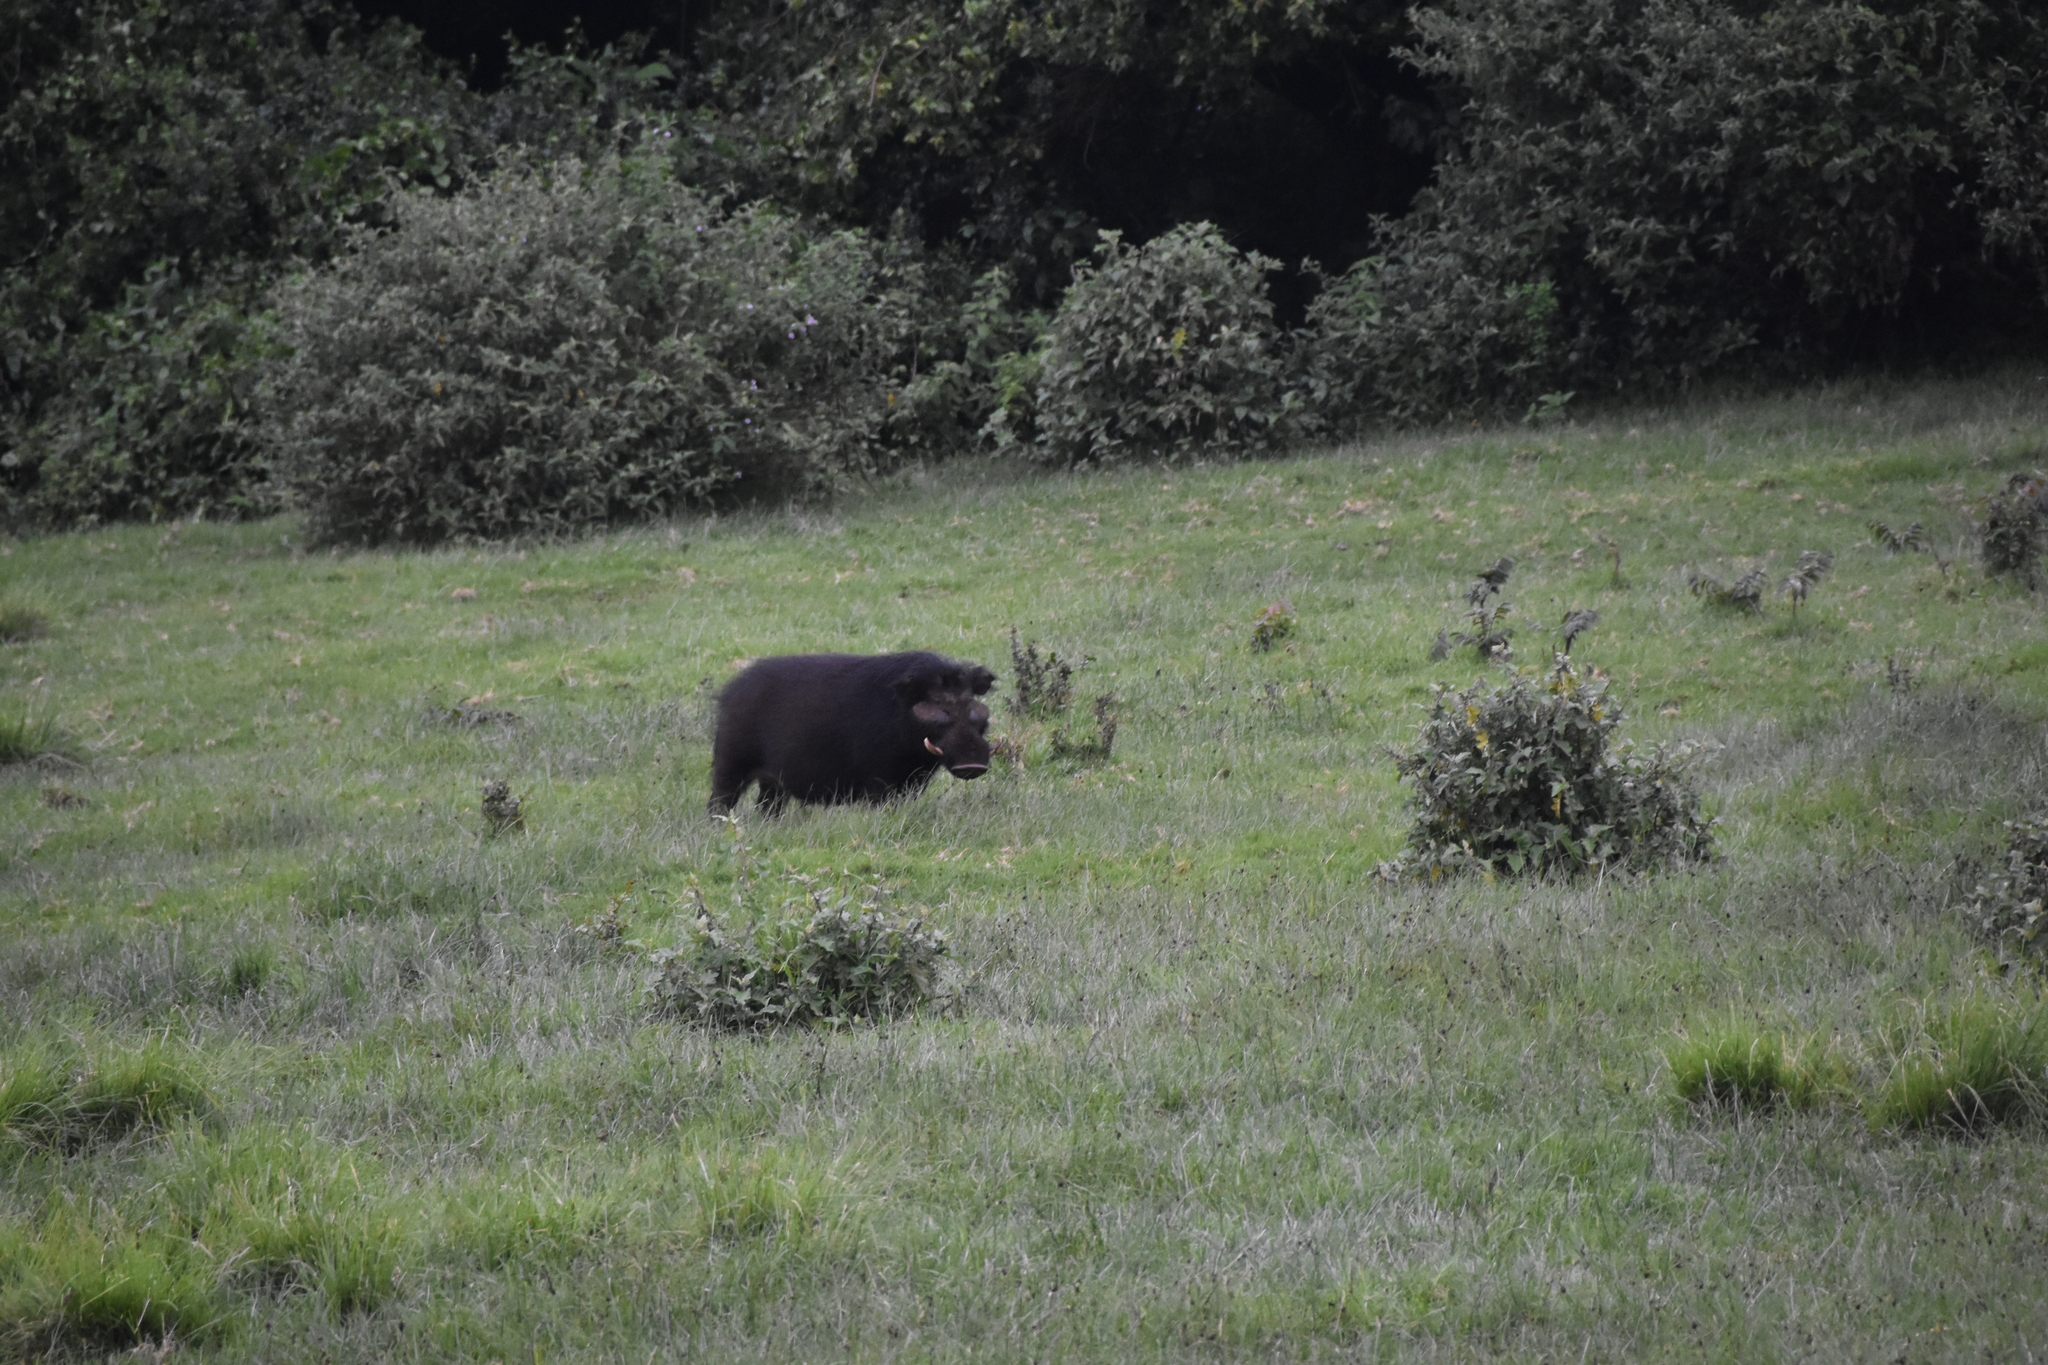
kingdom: Animalia
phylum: Chordata
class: Mammalia
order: Artiodactyla
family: Suidae
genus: Hylochoerus
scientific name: Hylochoerus meinertzhageni
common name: Giant forest hog
